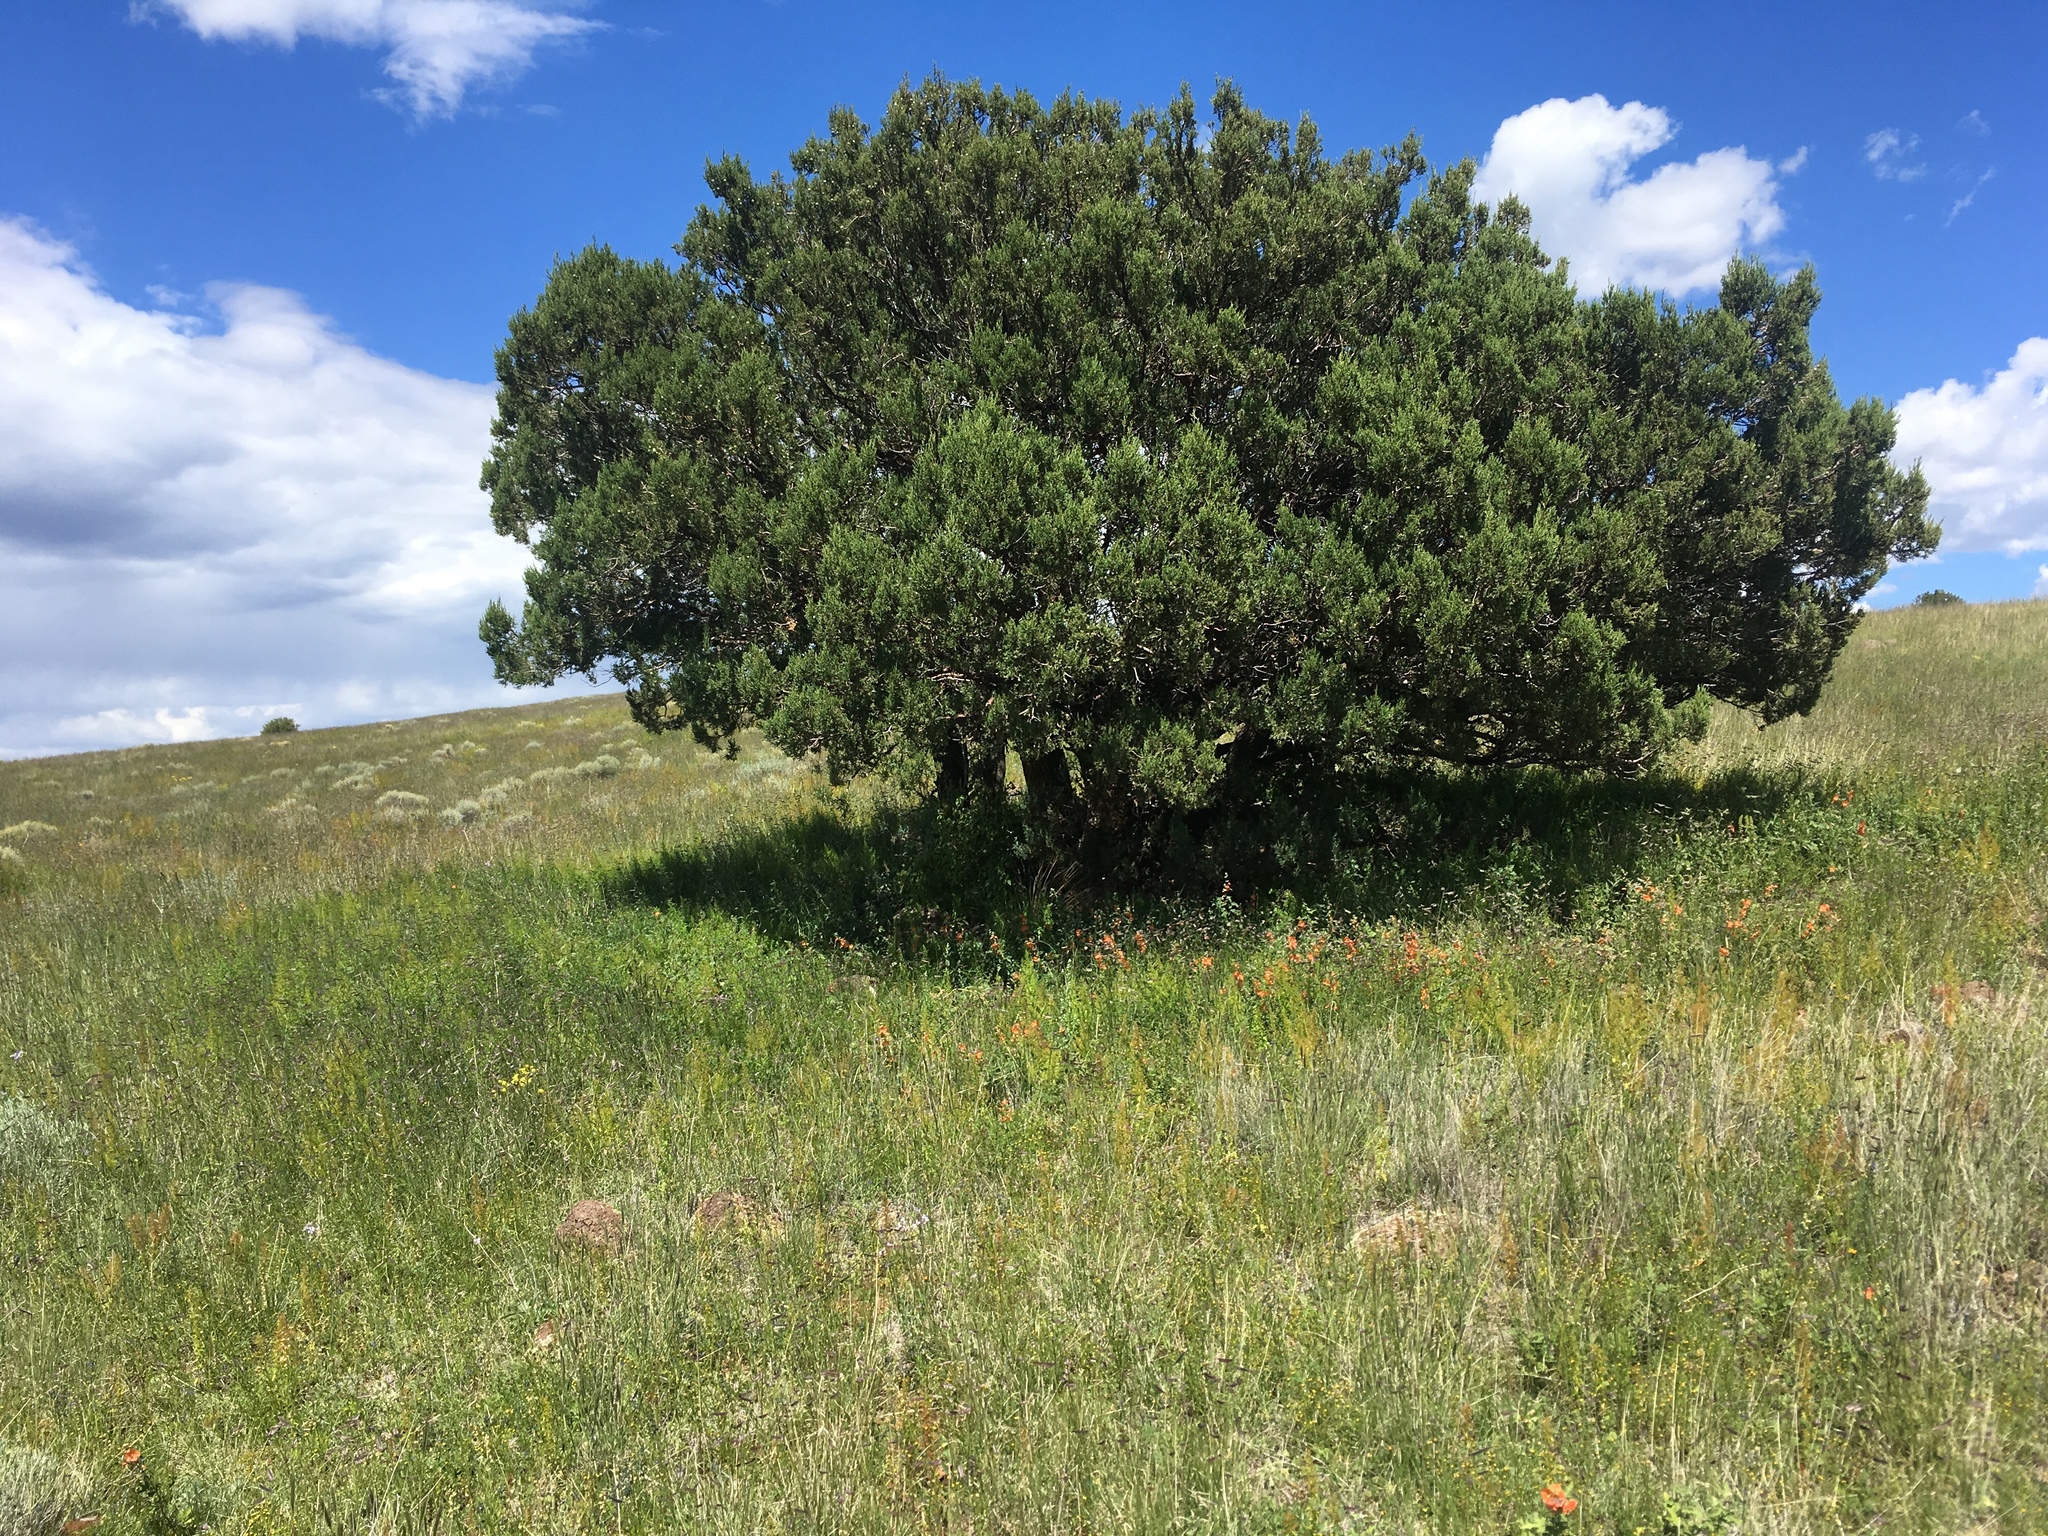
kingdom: Plantae
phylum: Tracheophyta
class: Pinopsida
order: Pinales
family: Cupressaceae
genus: Juniperus
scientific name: Juniperus deppeana
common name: Alligator juniper
